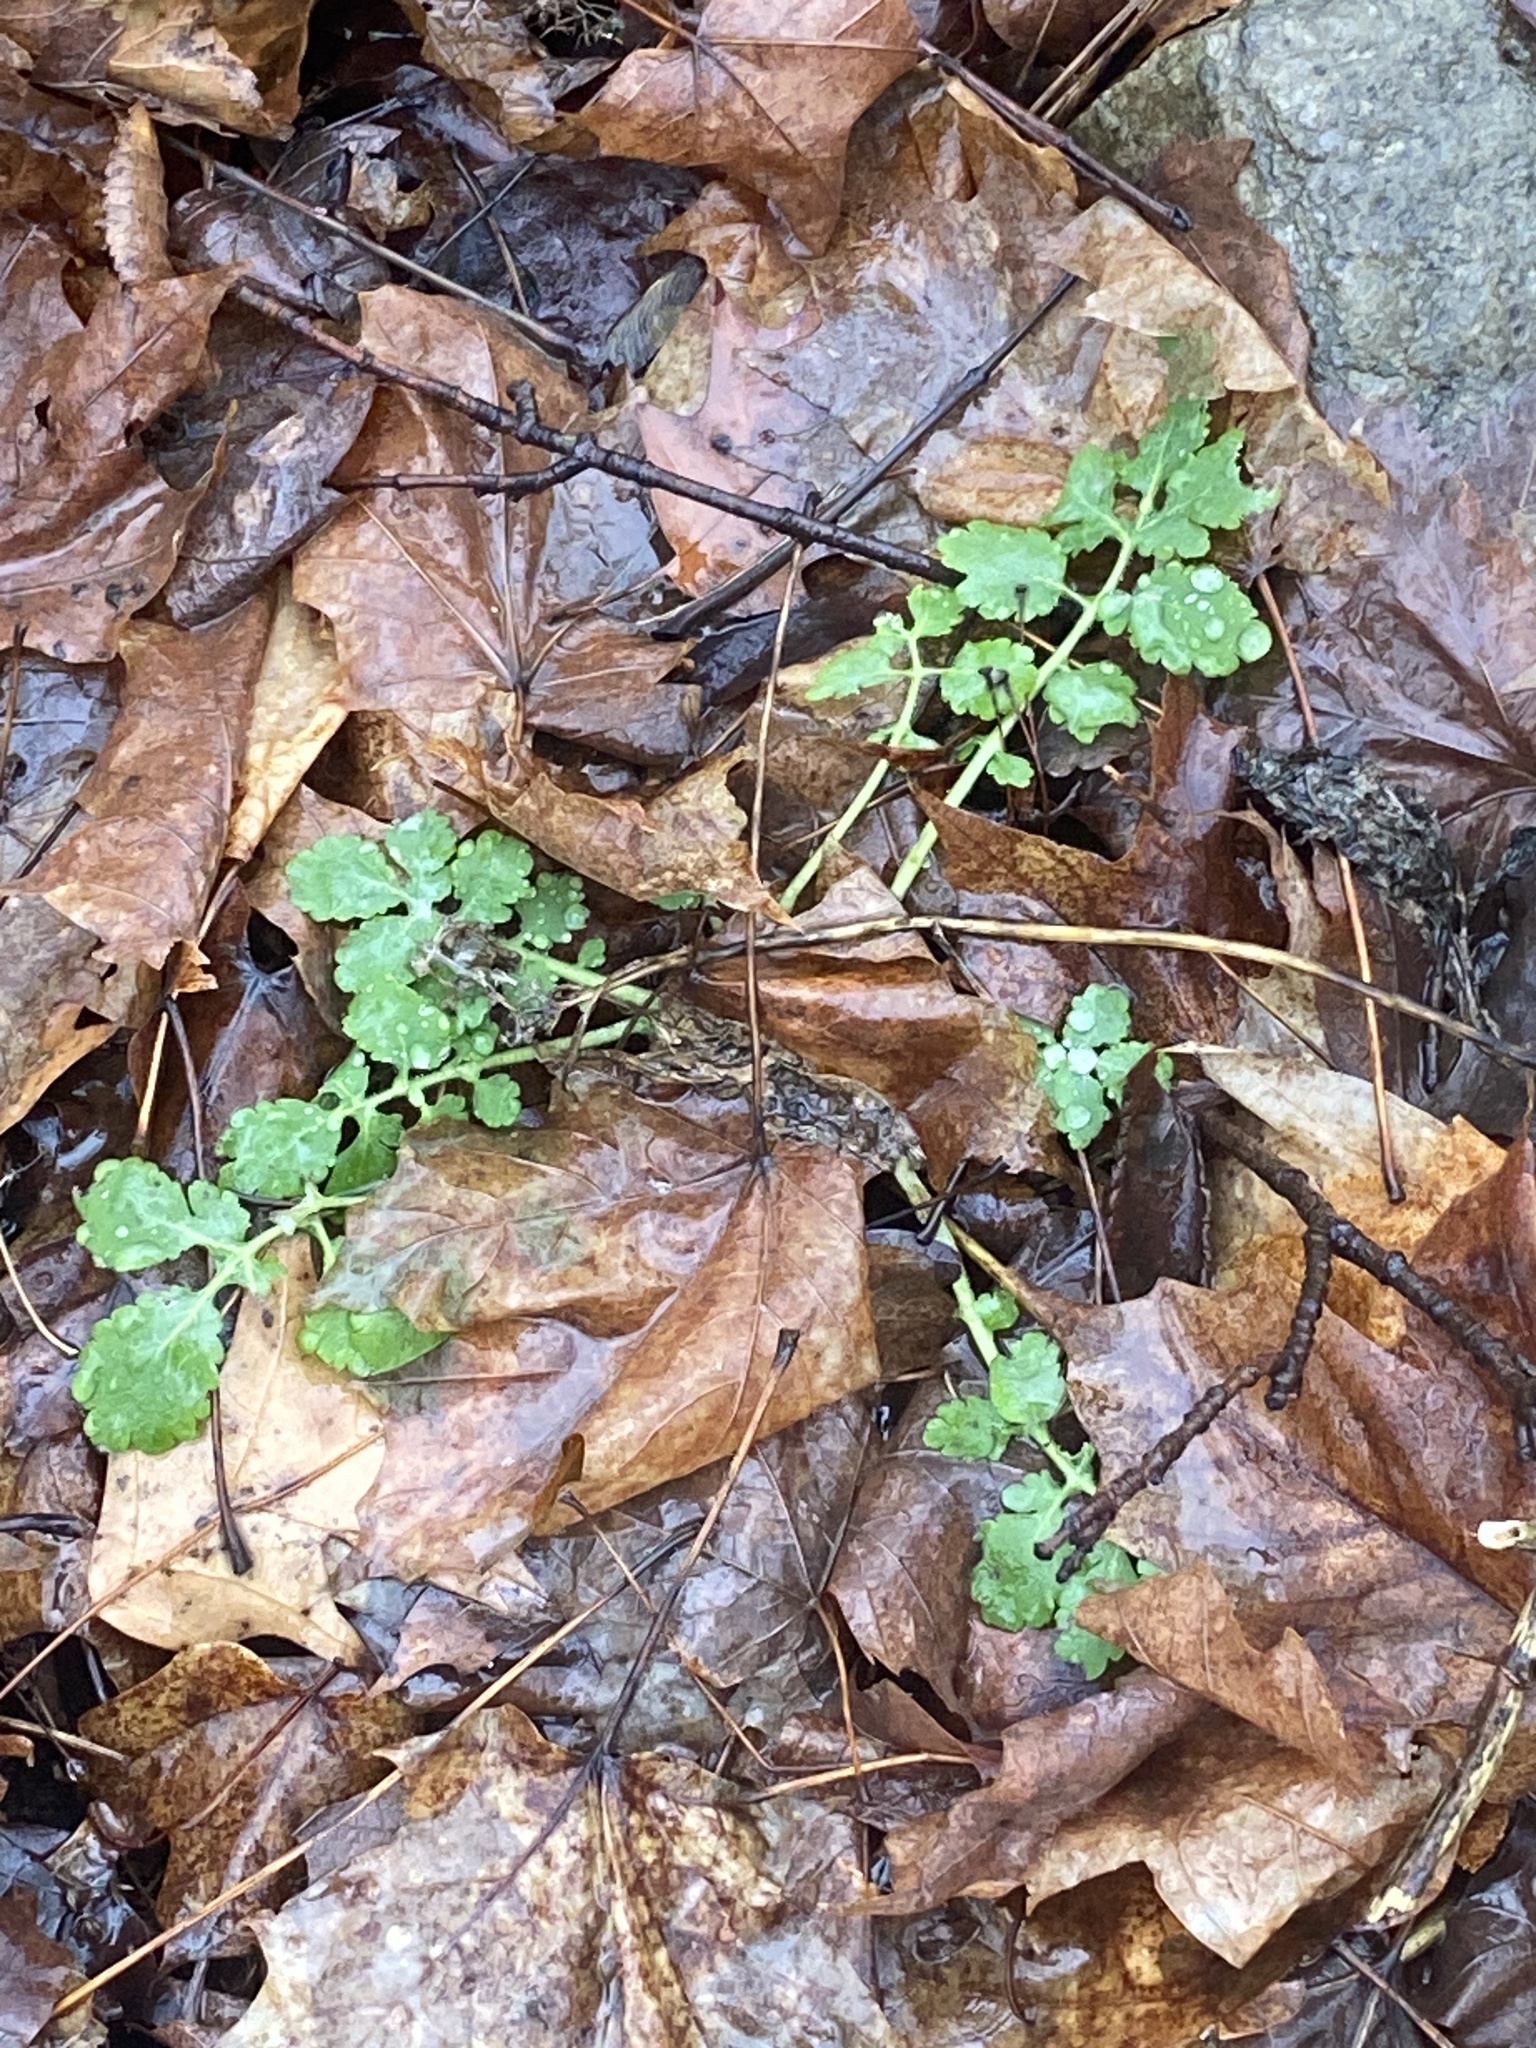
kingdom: Plantae
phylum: Tracheophyta
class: Magnoliopsida
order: Ranunculales
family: Papaveraceae
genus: Chelidonium
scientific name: Chelidonium majus
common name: Greater celandine
